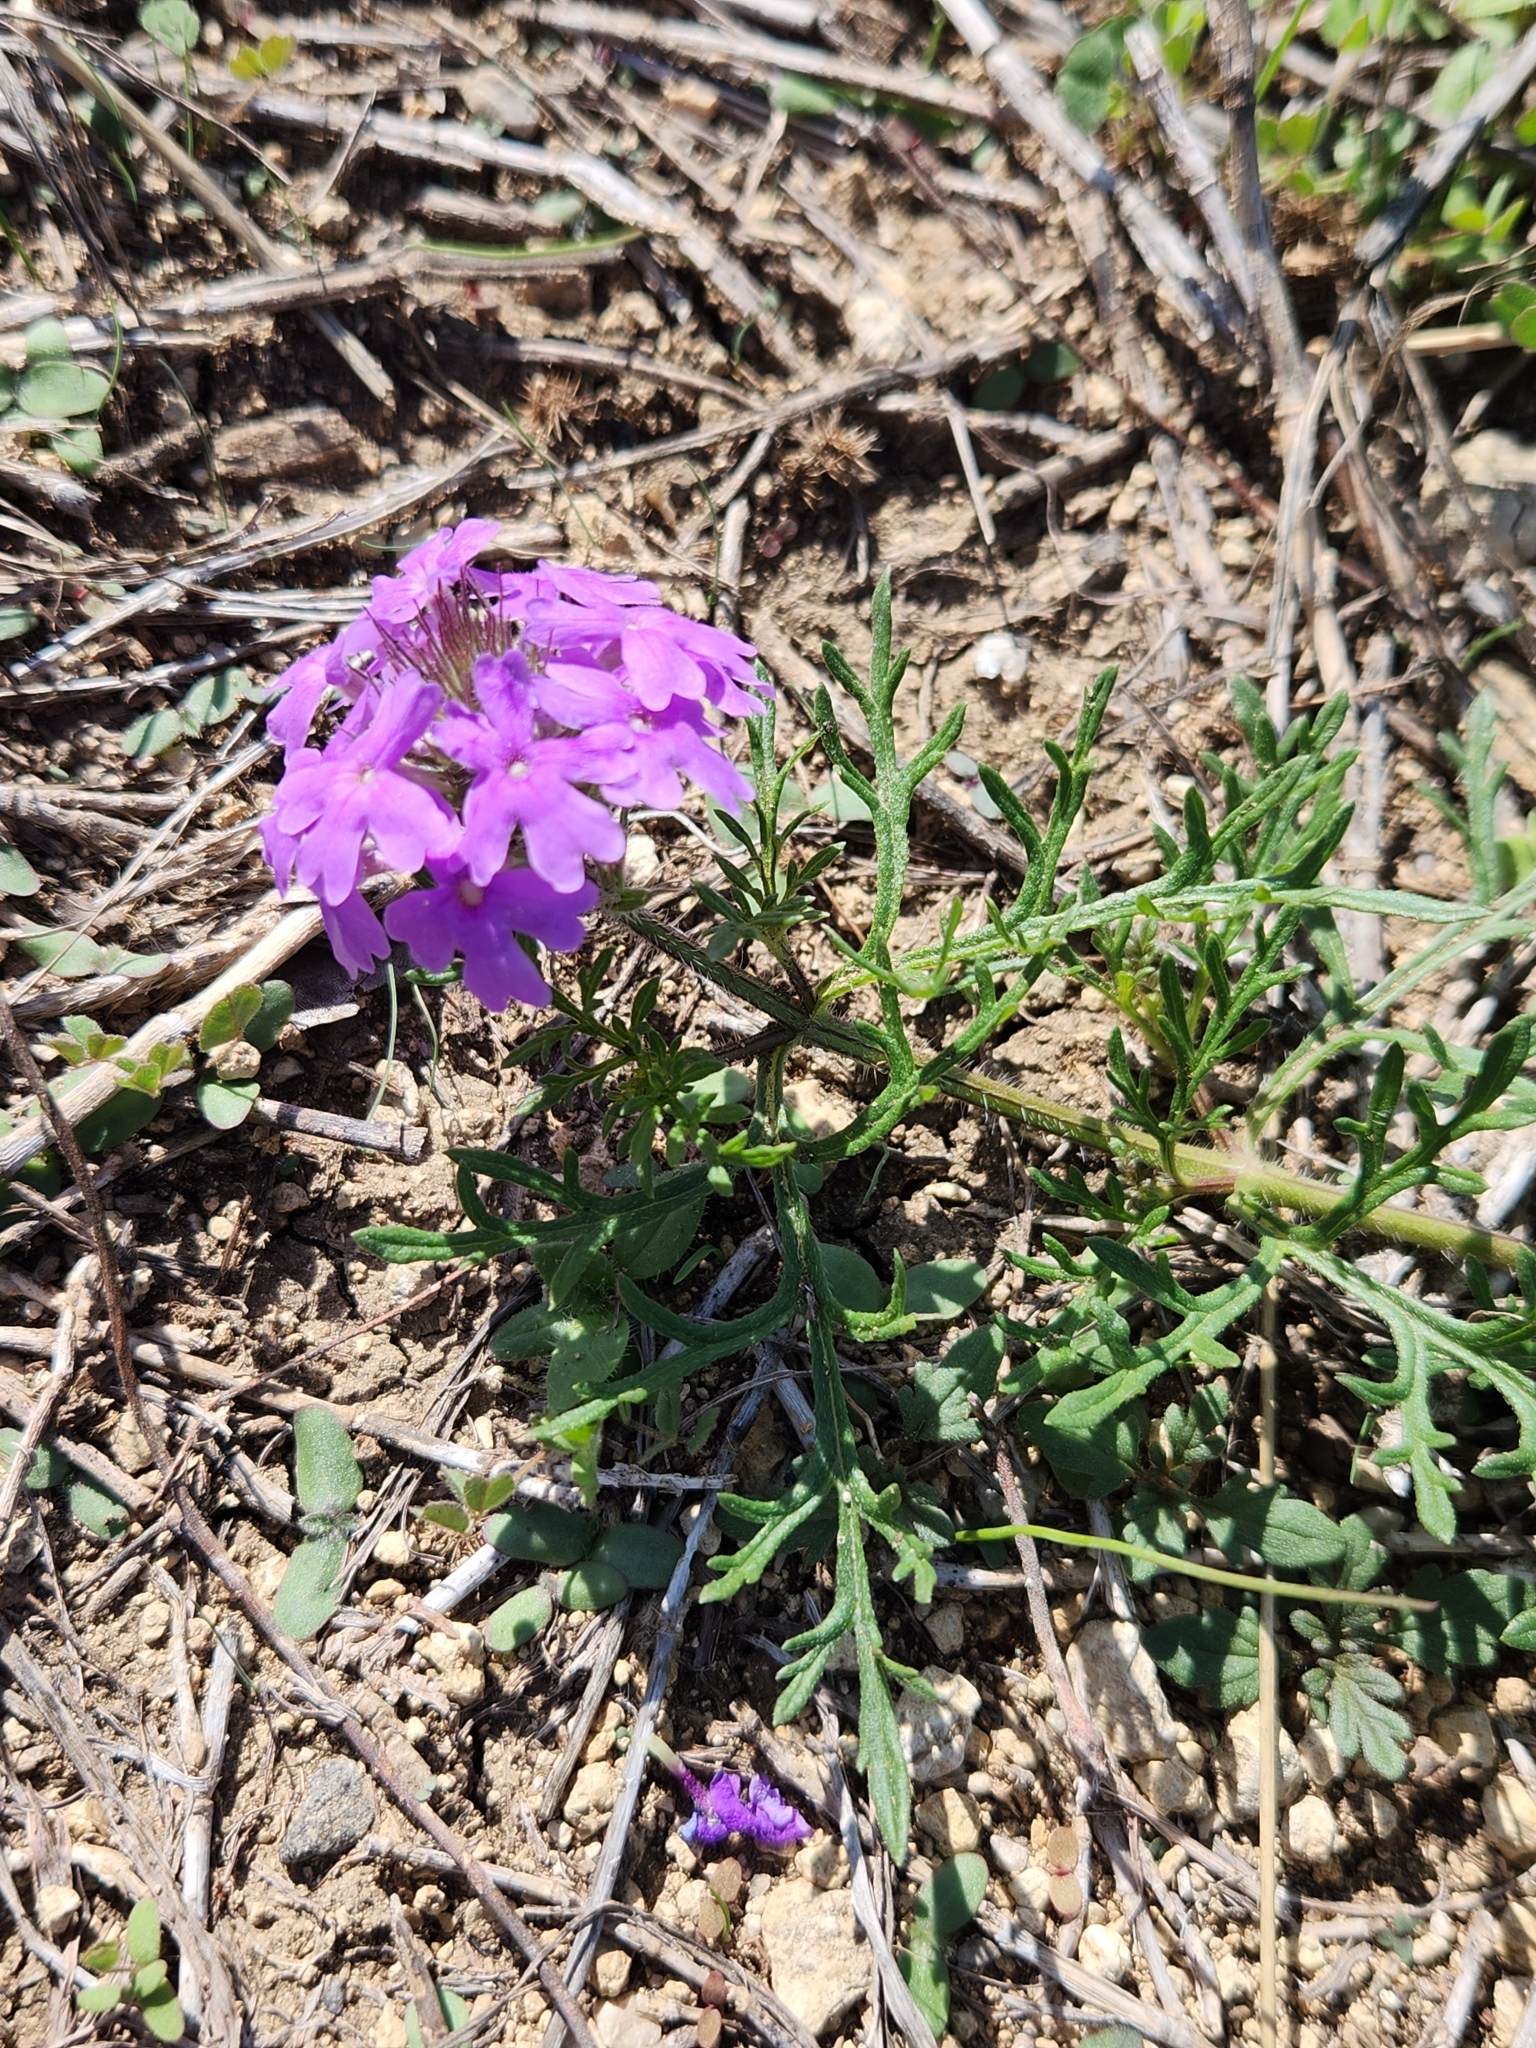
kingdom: Plantae
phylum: Tracheophyta
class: Magnoliopsida
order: Lamiales
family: Verbenaceae
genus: Verbena
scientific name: Verbena bipinnatifida
